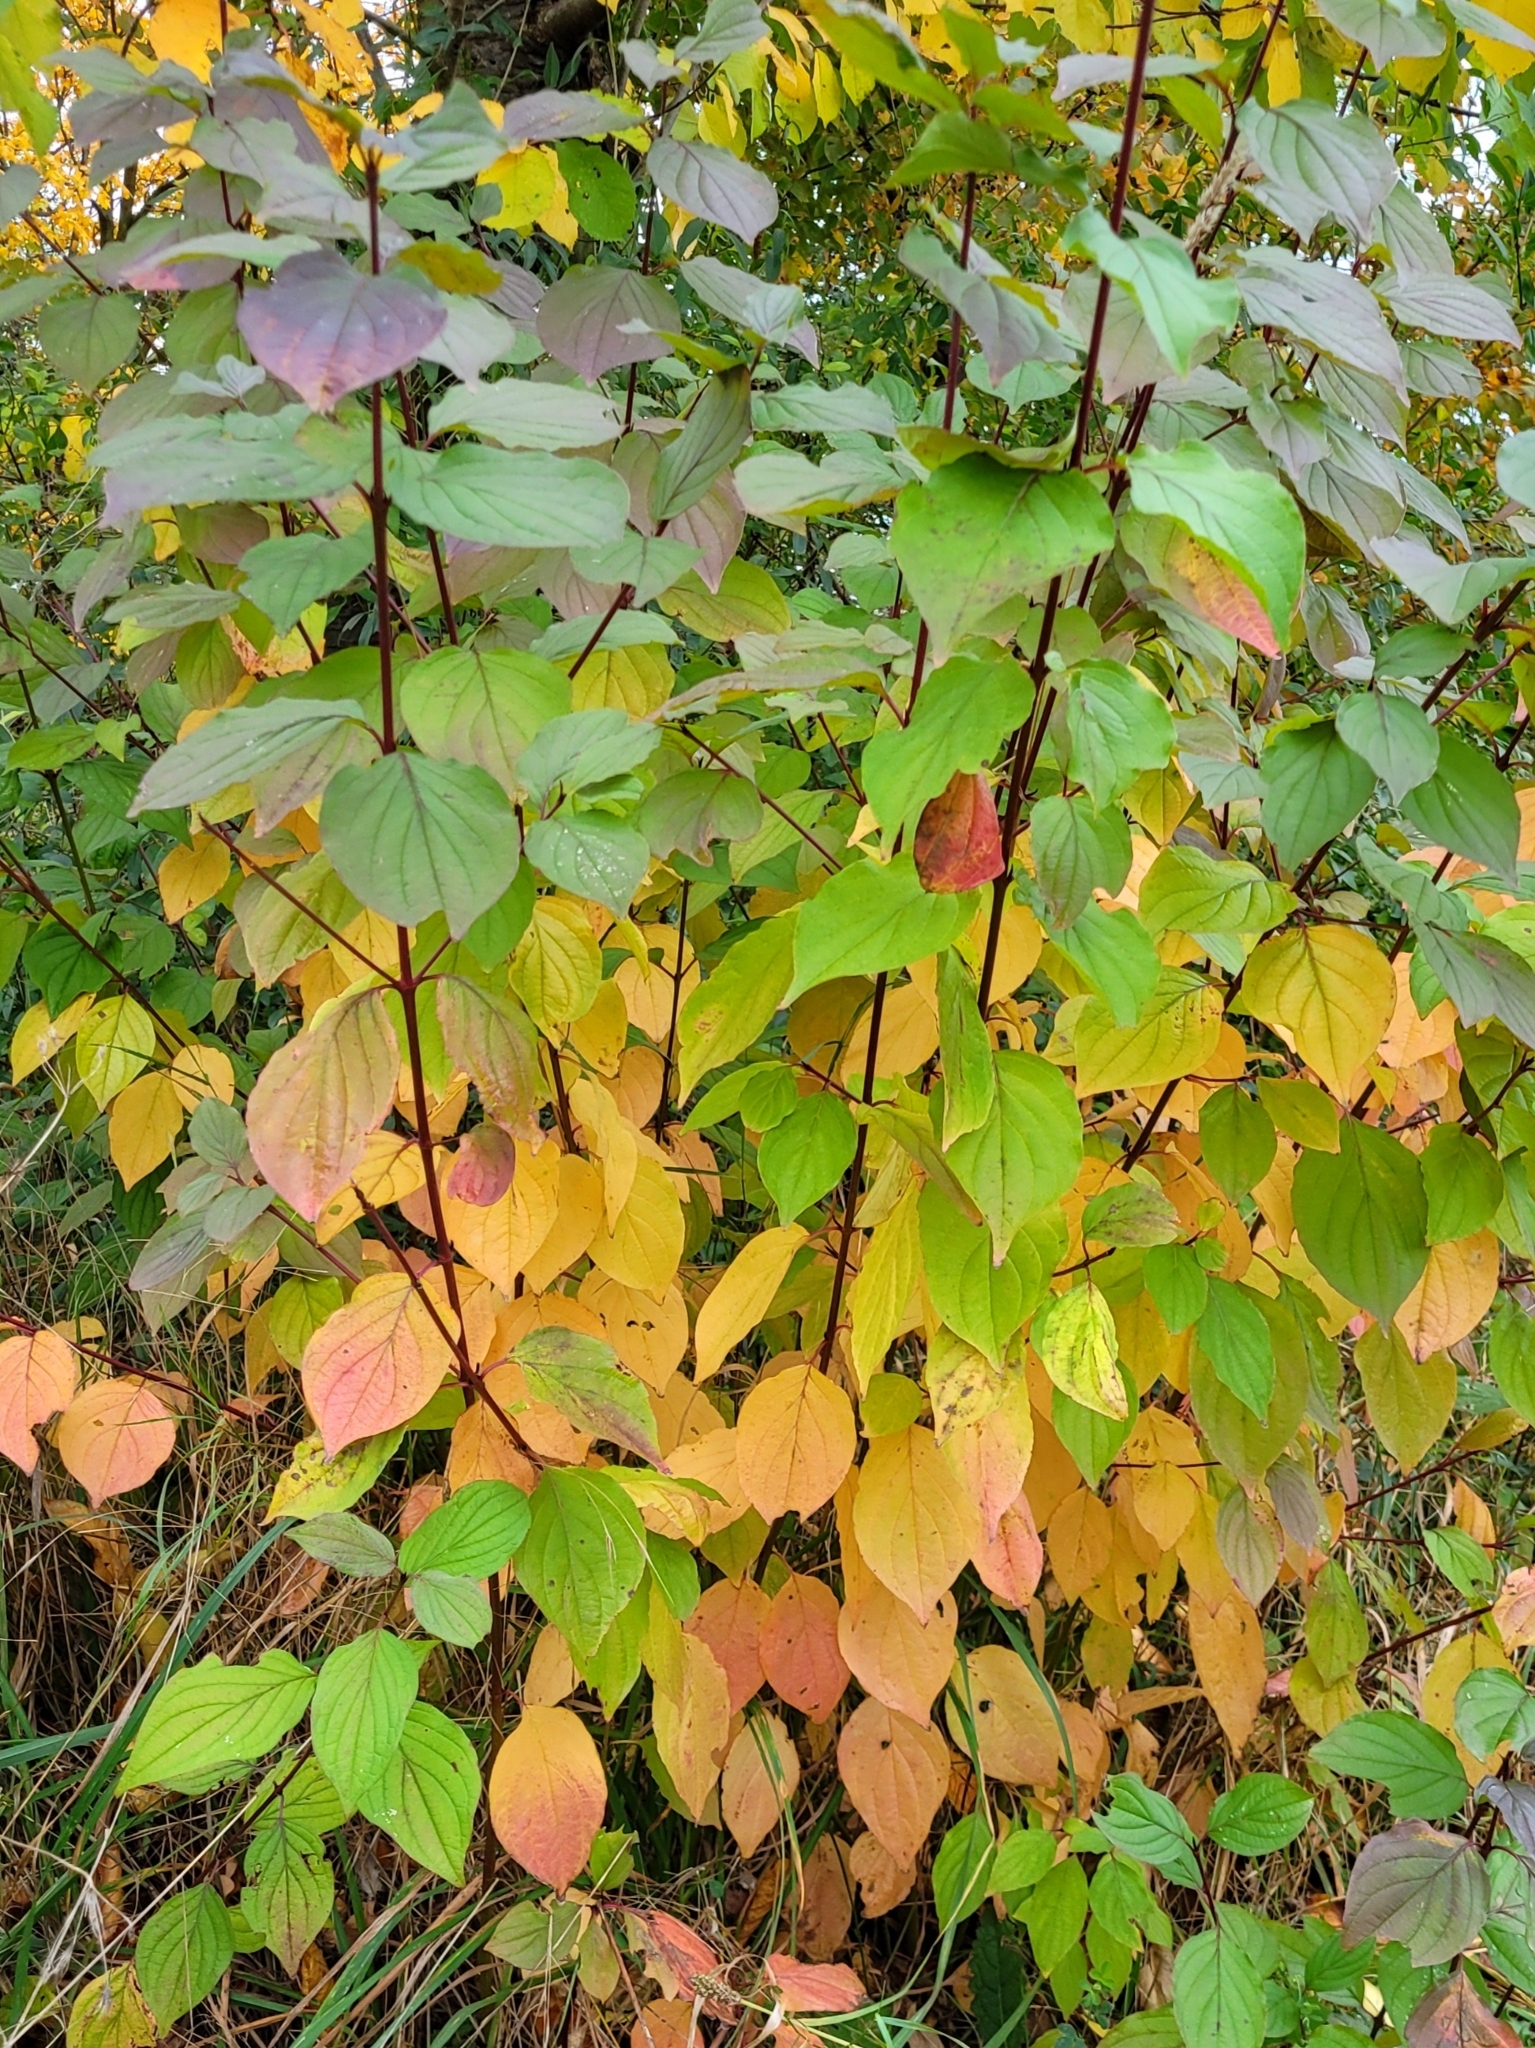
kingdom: Plantae
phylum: Tracheophyta
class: Magnoliopsida
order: Cornales
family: Cornaceae
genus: Cornus
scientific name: Cornus sanguinea
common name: Dogwood
